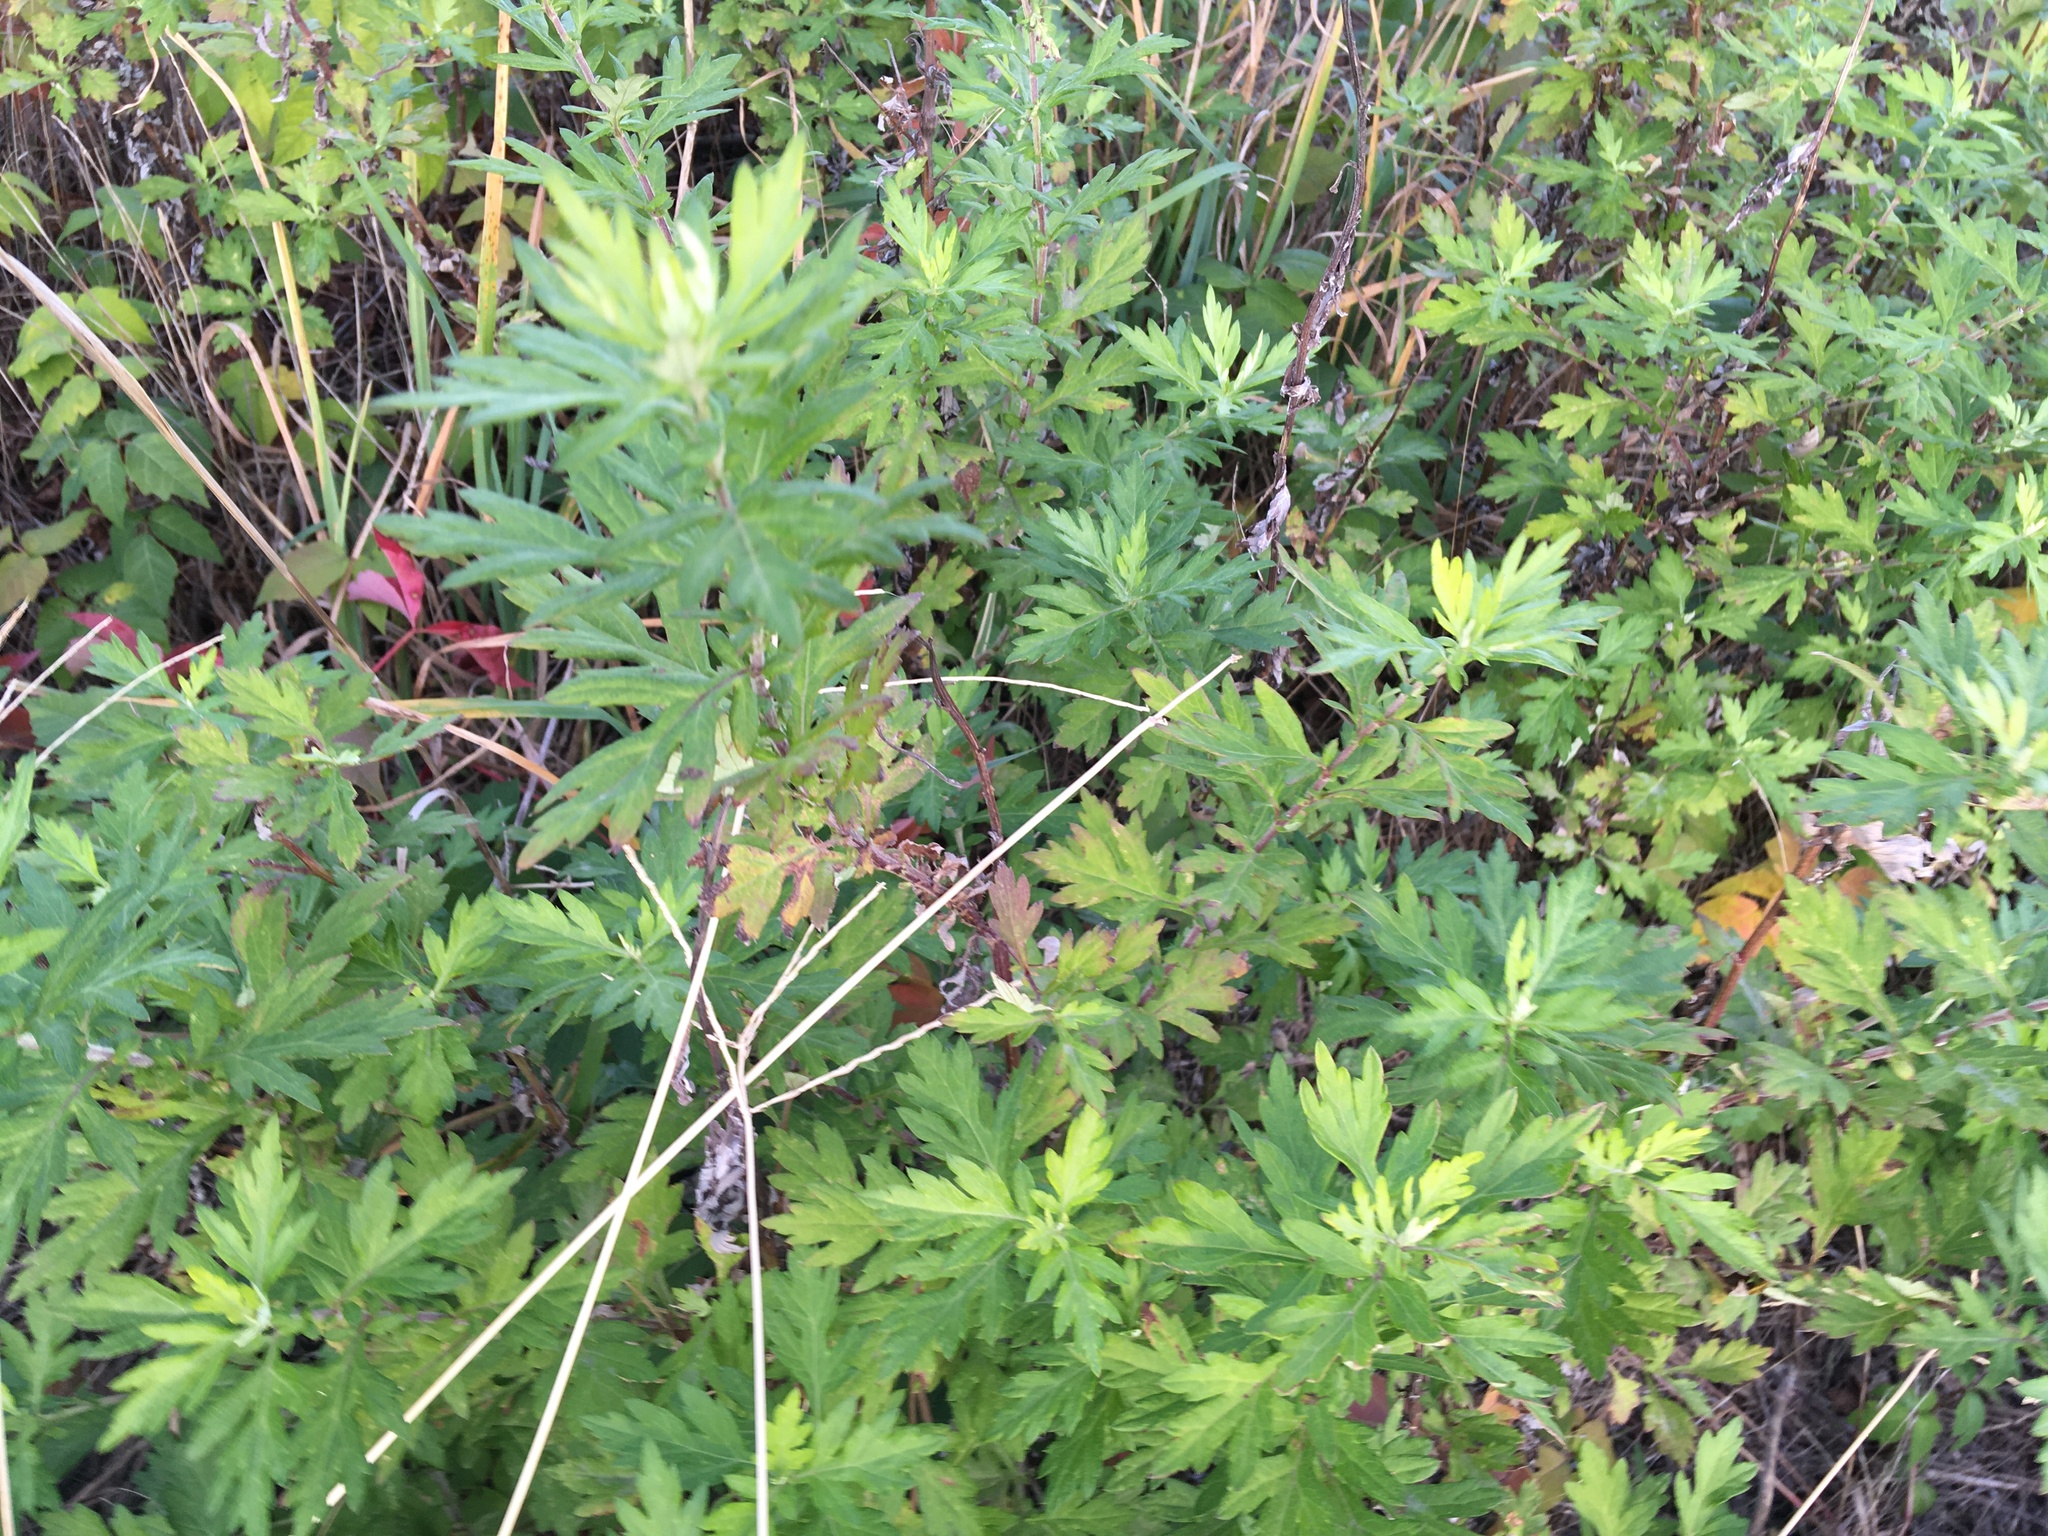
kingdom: Plantae
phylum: Tracheophyta
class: Magnoliopsida
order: Asterales
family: Asteraceae
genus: Artemisia
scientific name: Artemisia vulgaris
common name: Mugwort
